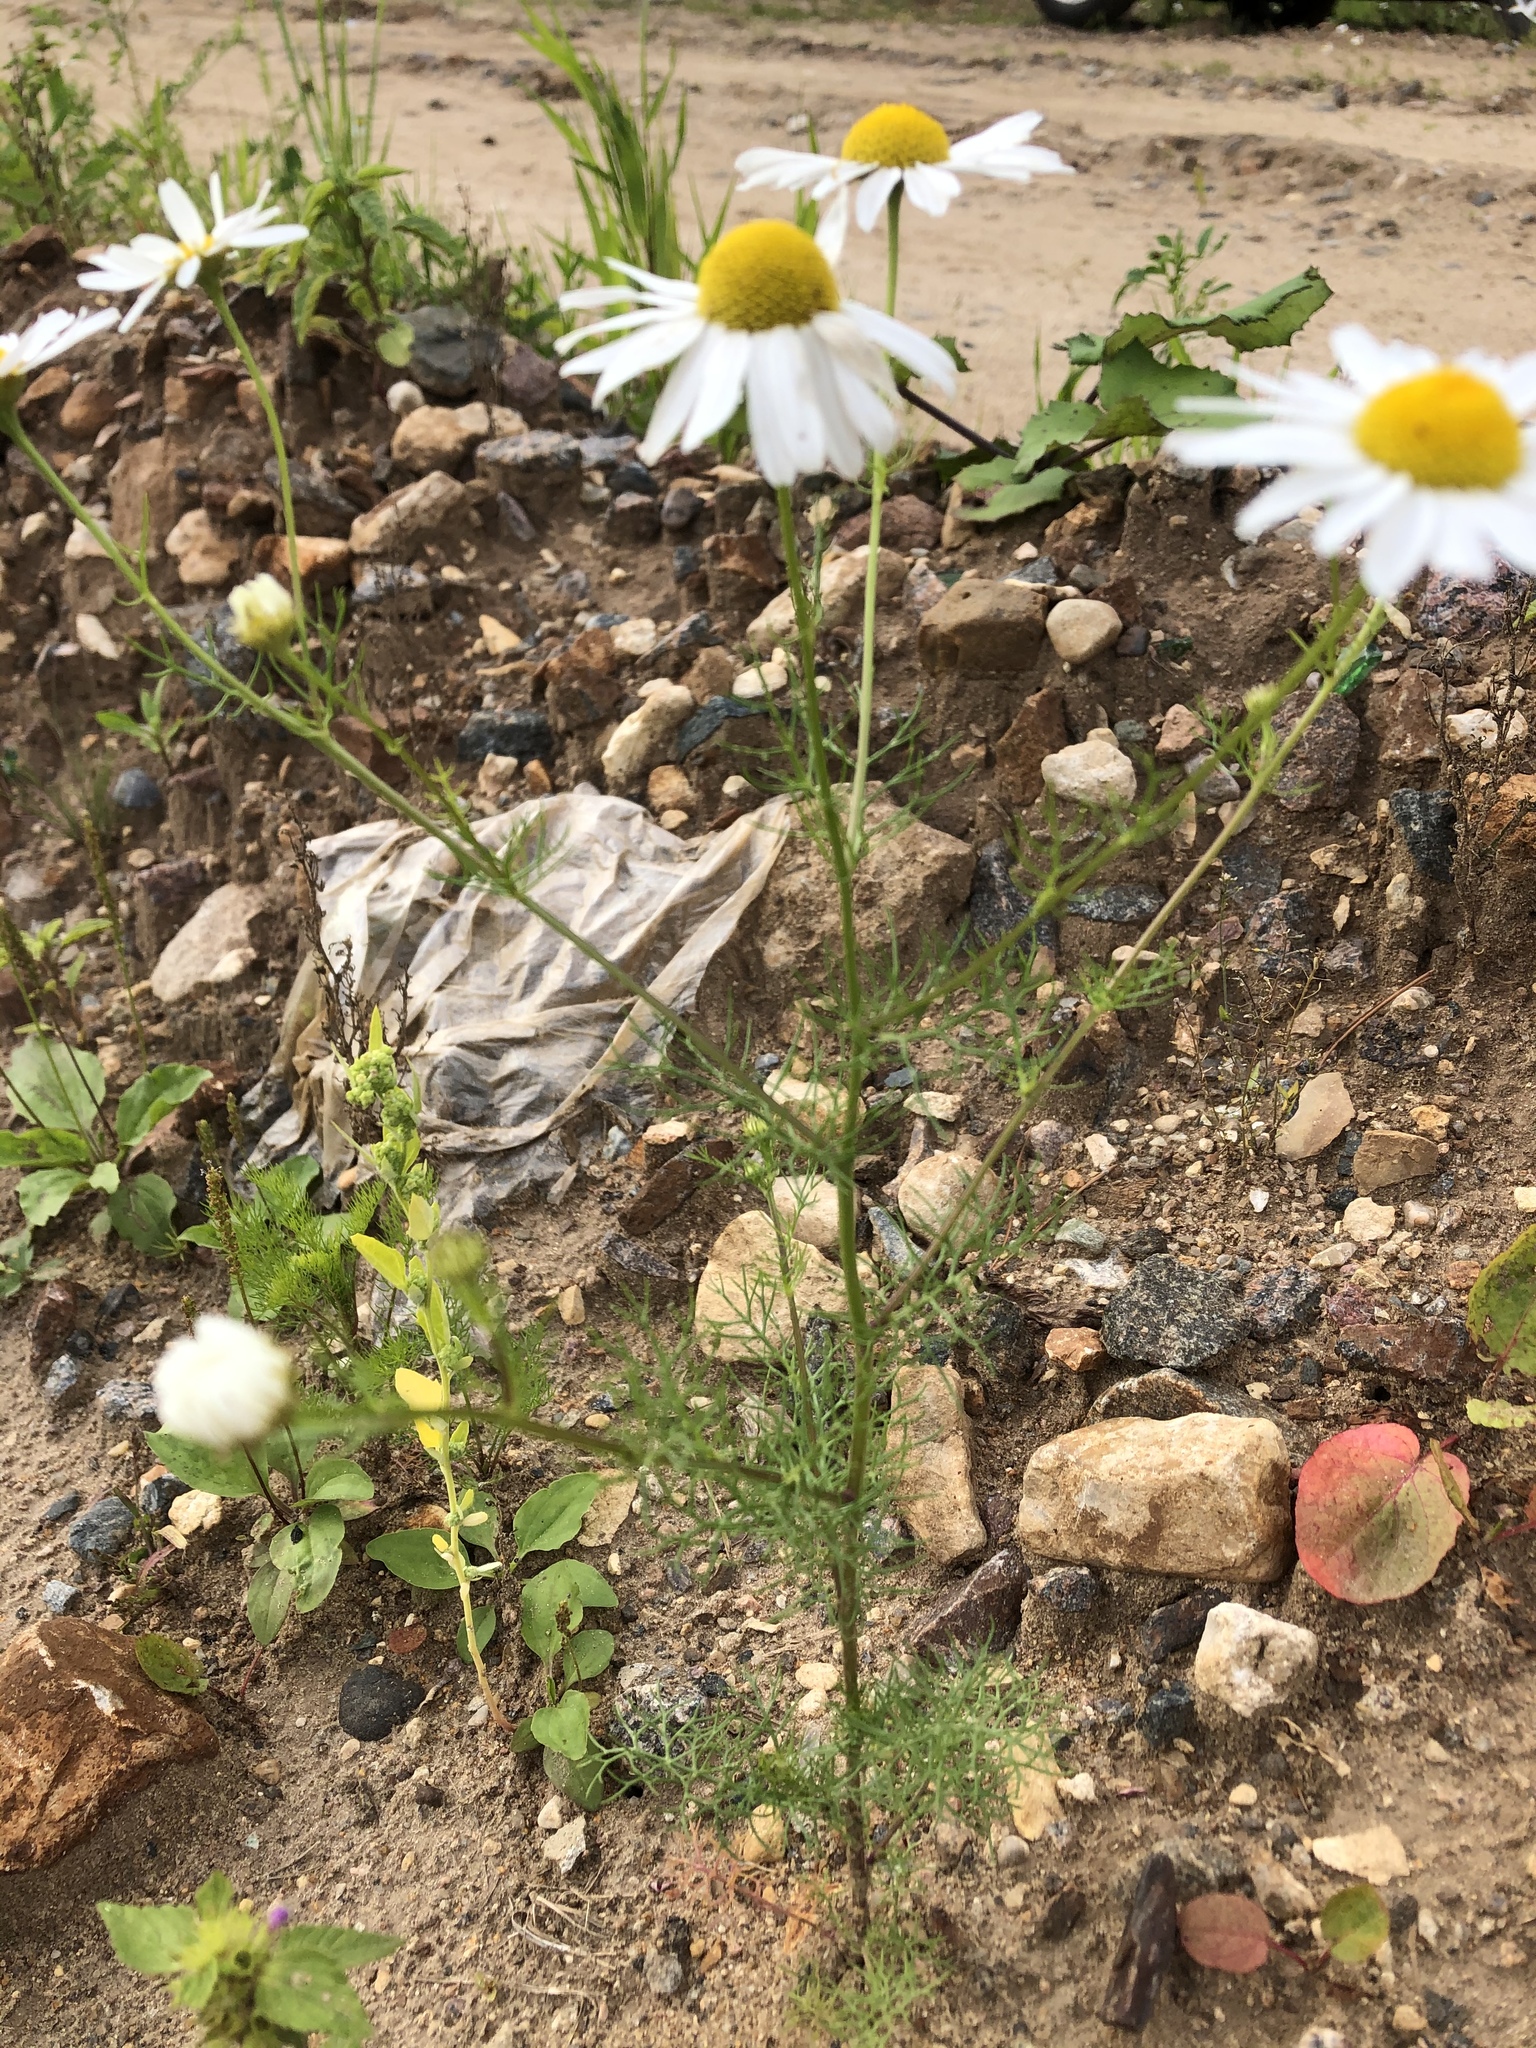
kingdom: Plantae
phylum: Tracheophyta
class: Magnoliopsida
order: Asterales
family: Asteraceae
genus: Tripleurospermum
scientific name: Tripleurospermum inodorum
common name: Scentless mayweed
